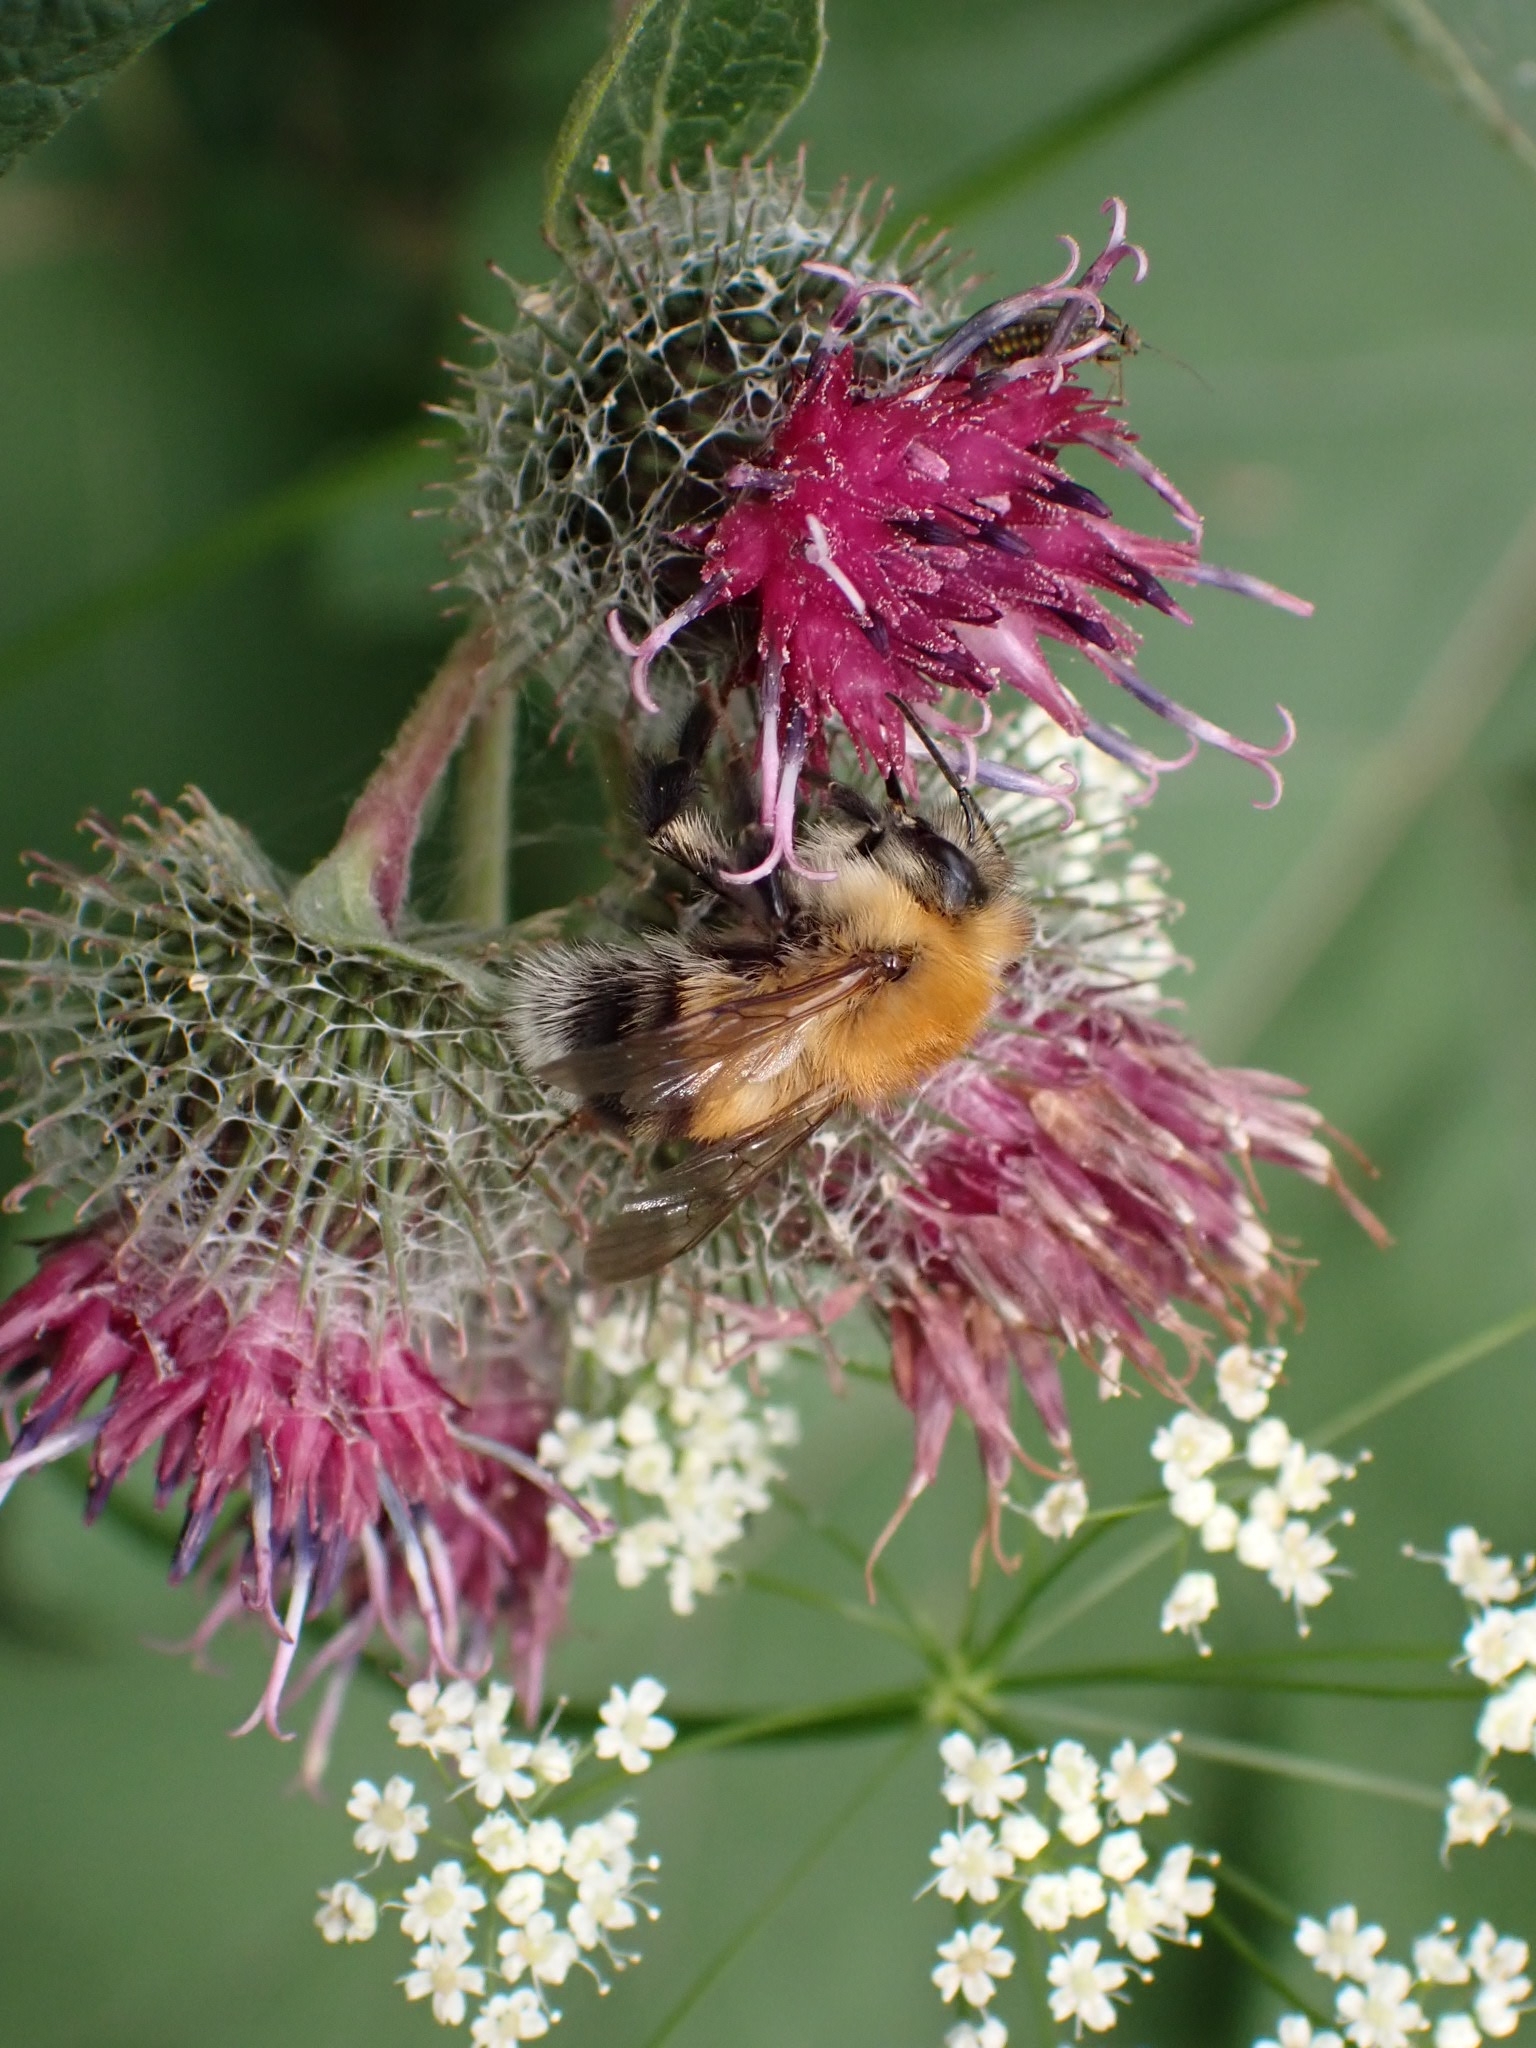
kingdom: Animalia
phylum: Arthropoda
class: Insecta
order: Hymenoptera
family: Apidae
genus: Bombus
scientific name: Bombus hypnorum
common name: New garden bumblebee
